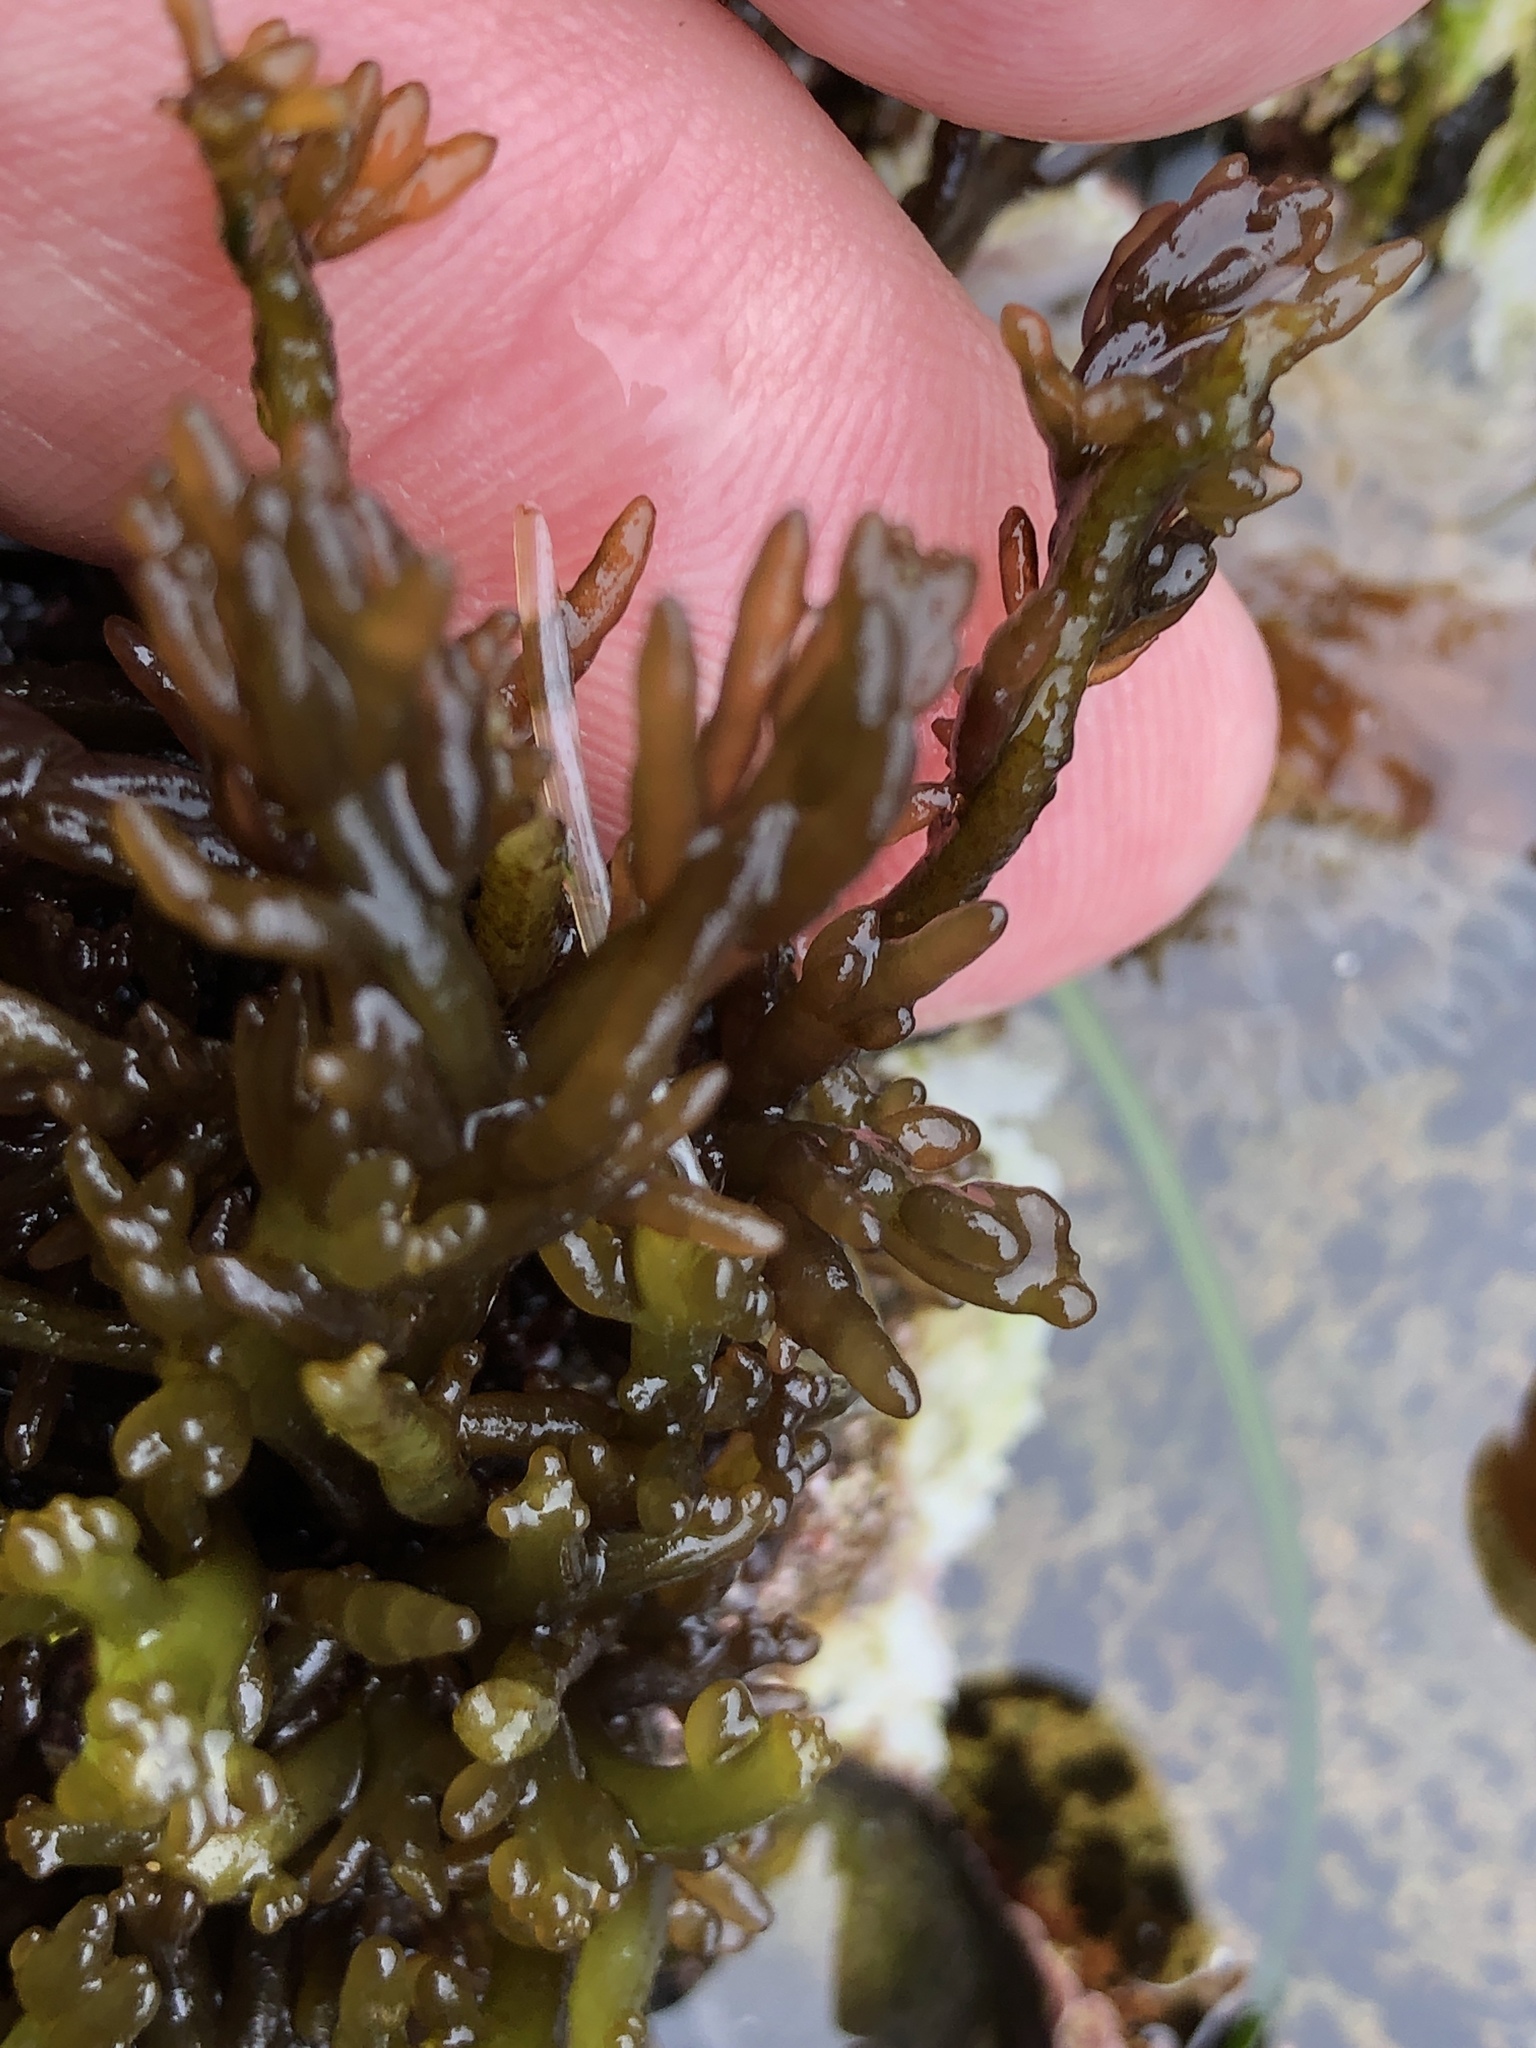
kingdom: Plantae
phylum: Rhodophyta
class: Florideophyceae
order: Rhodymeniales
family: Champiaceae
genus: Neogastroclonium
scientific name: Neogastroclonium subarticulatum
